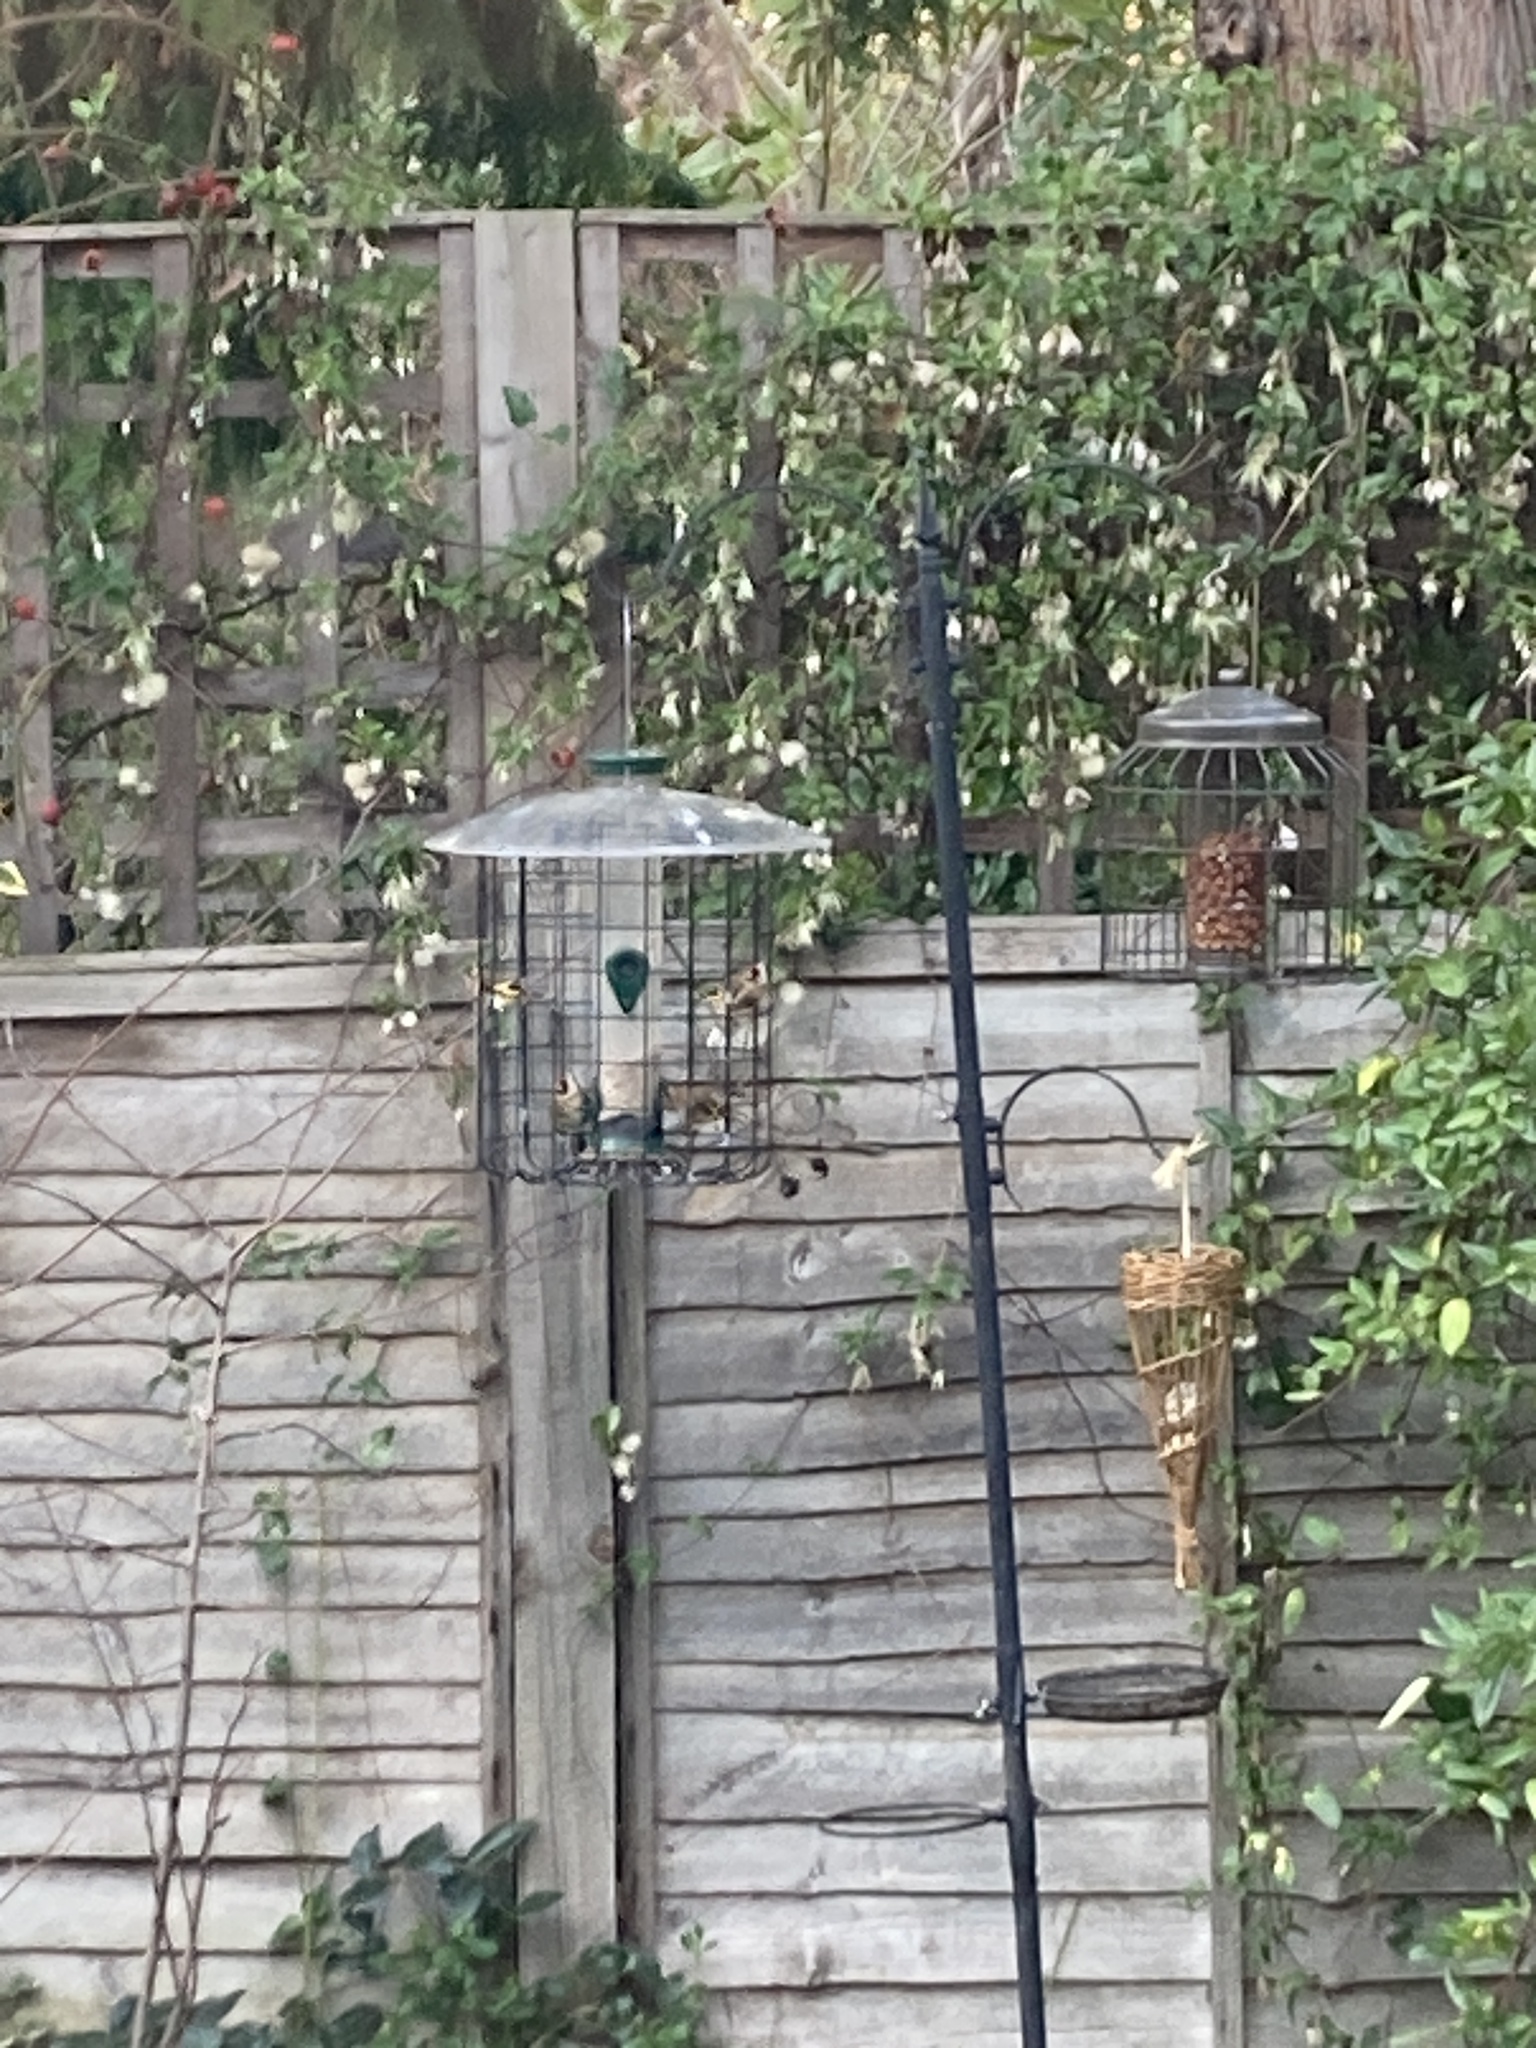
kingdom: Animalia
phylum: Chordata
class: Aves
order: Passeriformes
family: Fringillidae
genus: Carduelis
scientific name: Carduelis carduelis
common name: European goldfinch
